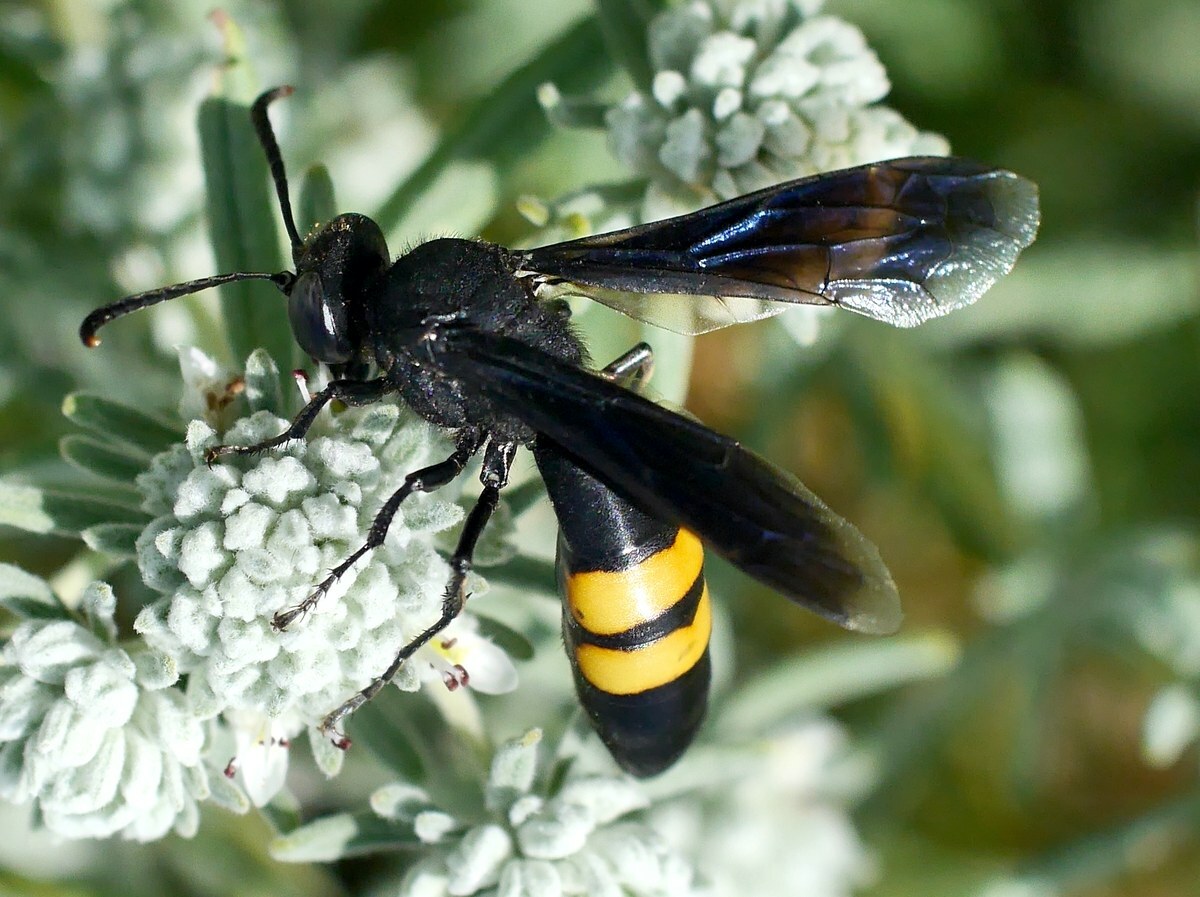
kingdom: Animalia
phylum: Arthropoda
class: Insecta
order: Hymenoptera
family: Crabronidae
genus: Stizoides
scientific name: Stizoides tridentatus
